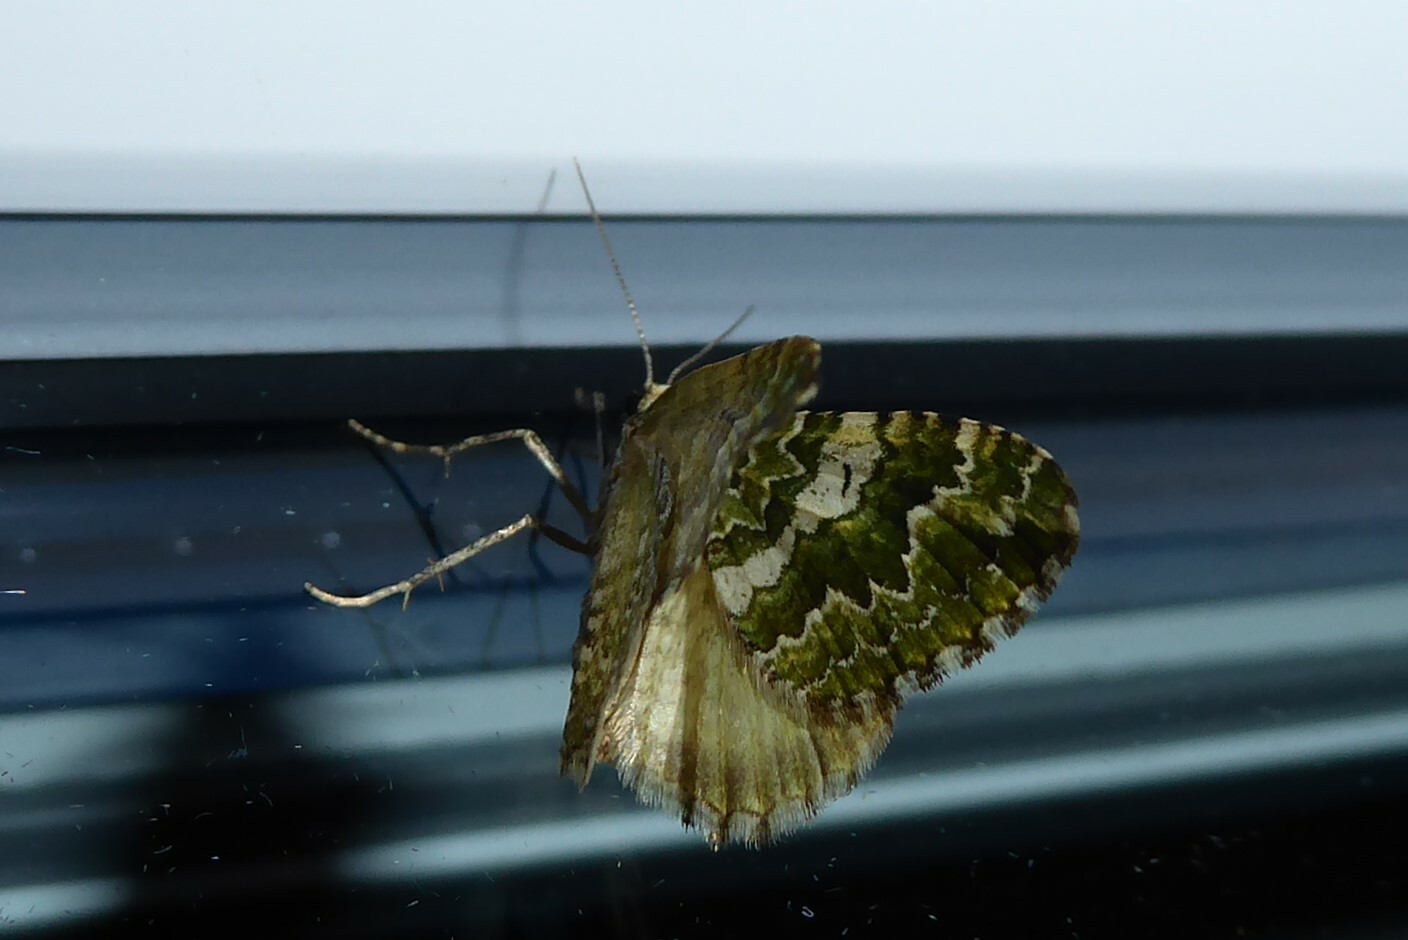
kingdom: Animalia
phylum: Arthropoda
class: Insecta
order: Lepidoptera
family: Geometridae
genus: Asaphodes
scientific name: Asaphodes beata
